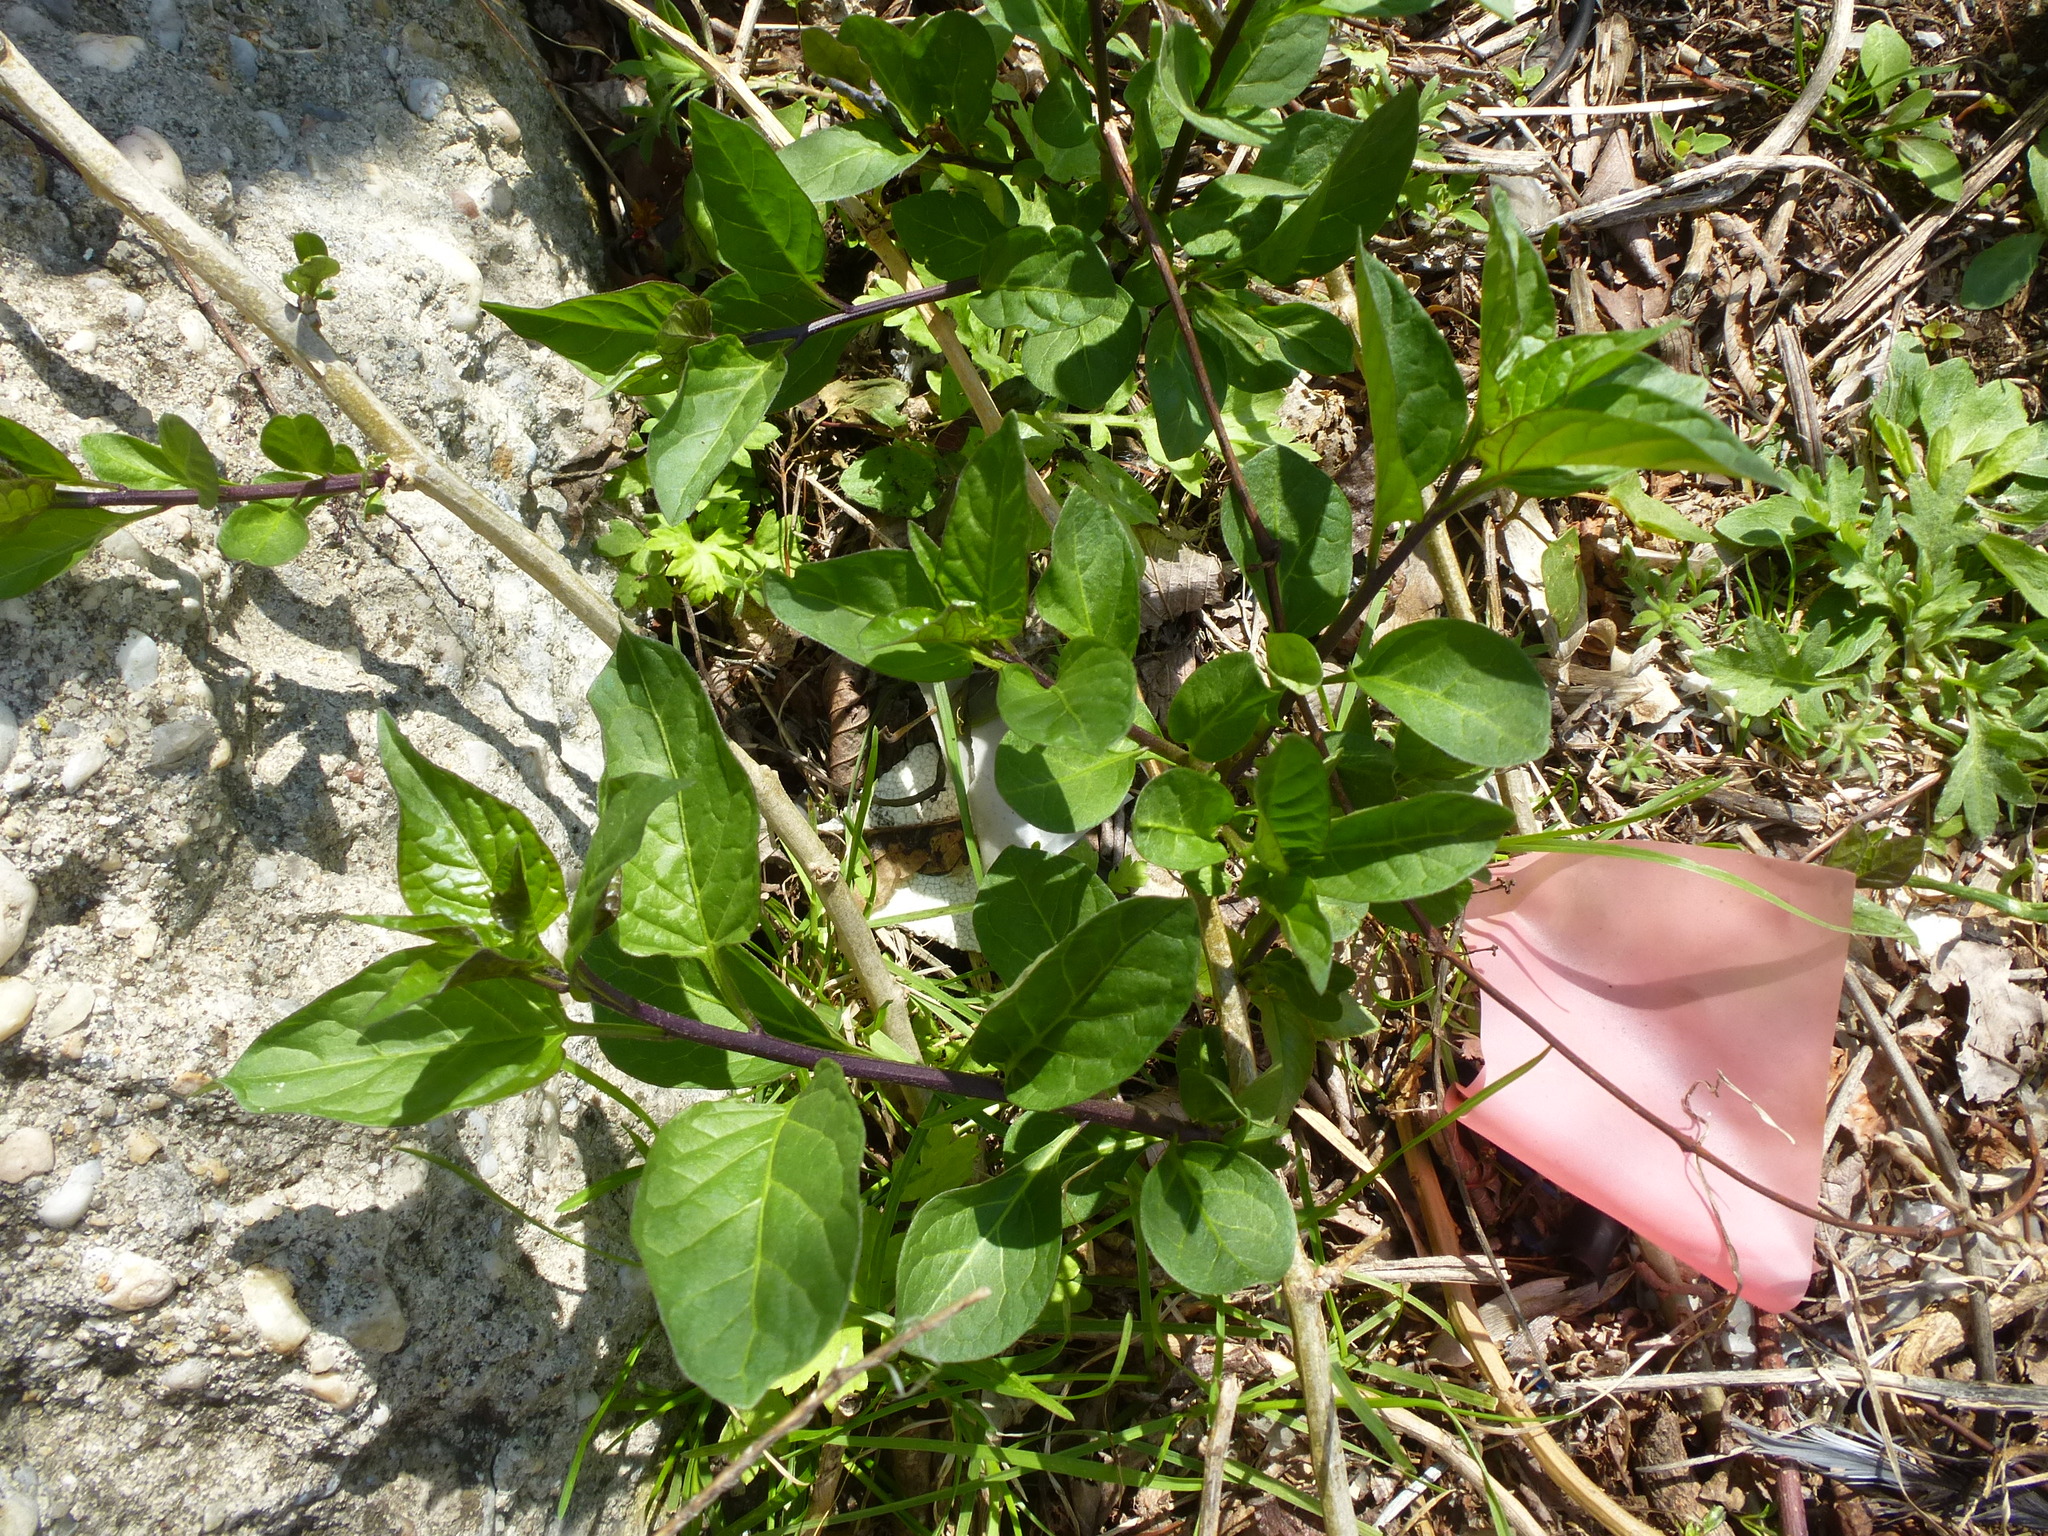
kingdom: Plantae
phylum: Tracheophyta
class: Magnoliopsida
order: Solanales
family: Solanaceae
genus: Solanum
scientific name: Solanum dulcamara
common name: Climbing nightshade
